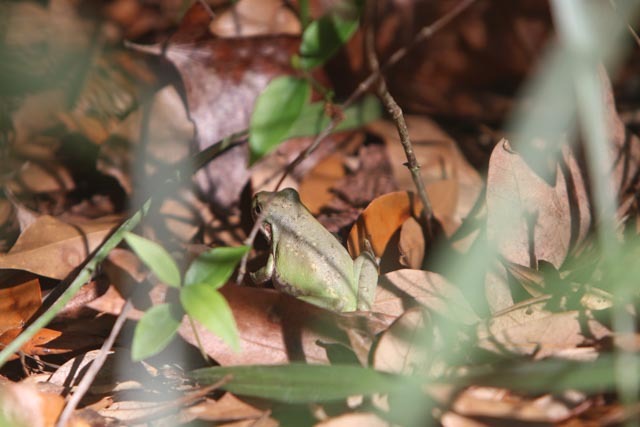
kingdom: Animalia
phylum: Chordata
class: Amphibia
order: Anura
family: Hylidae
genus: Dryophytes
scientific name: Dryophytes squirellus
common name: Squirrel treefrog
